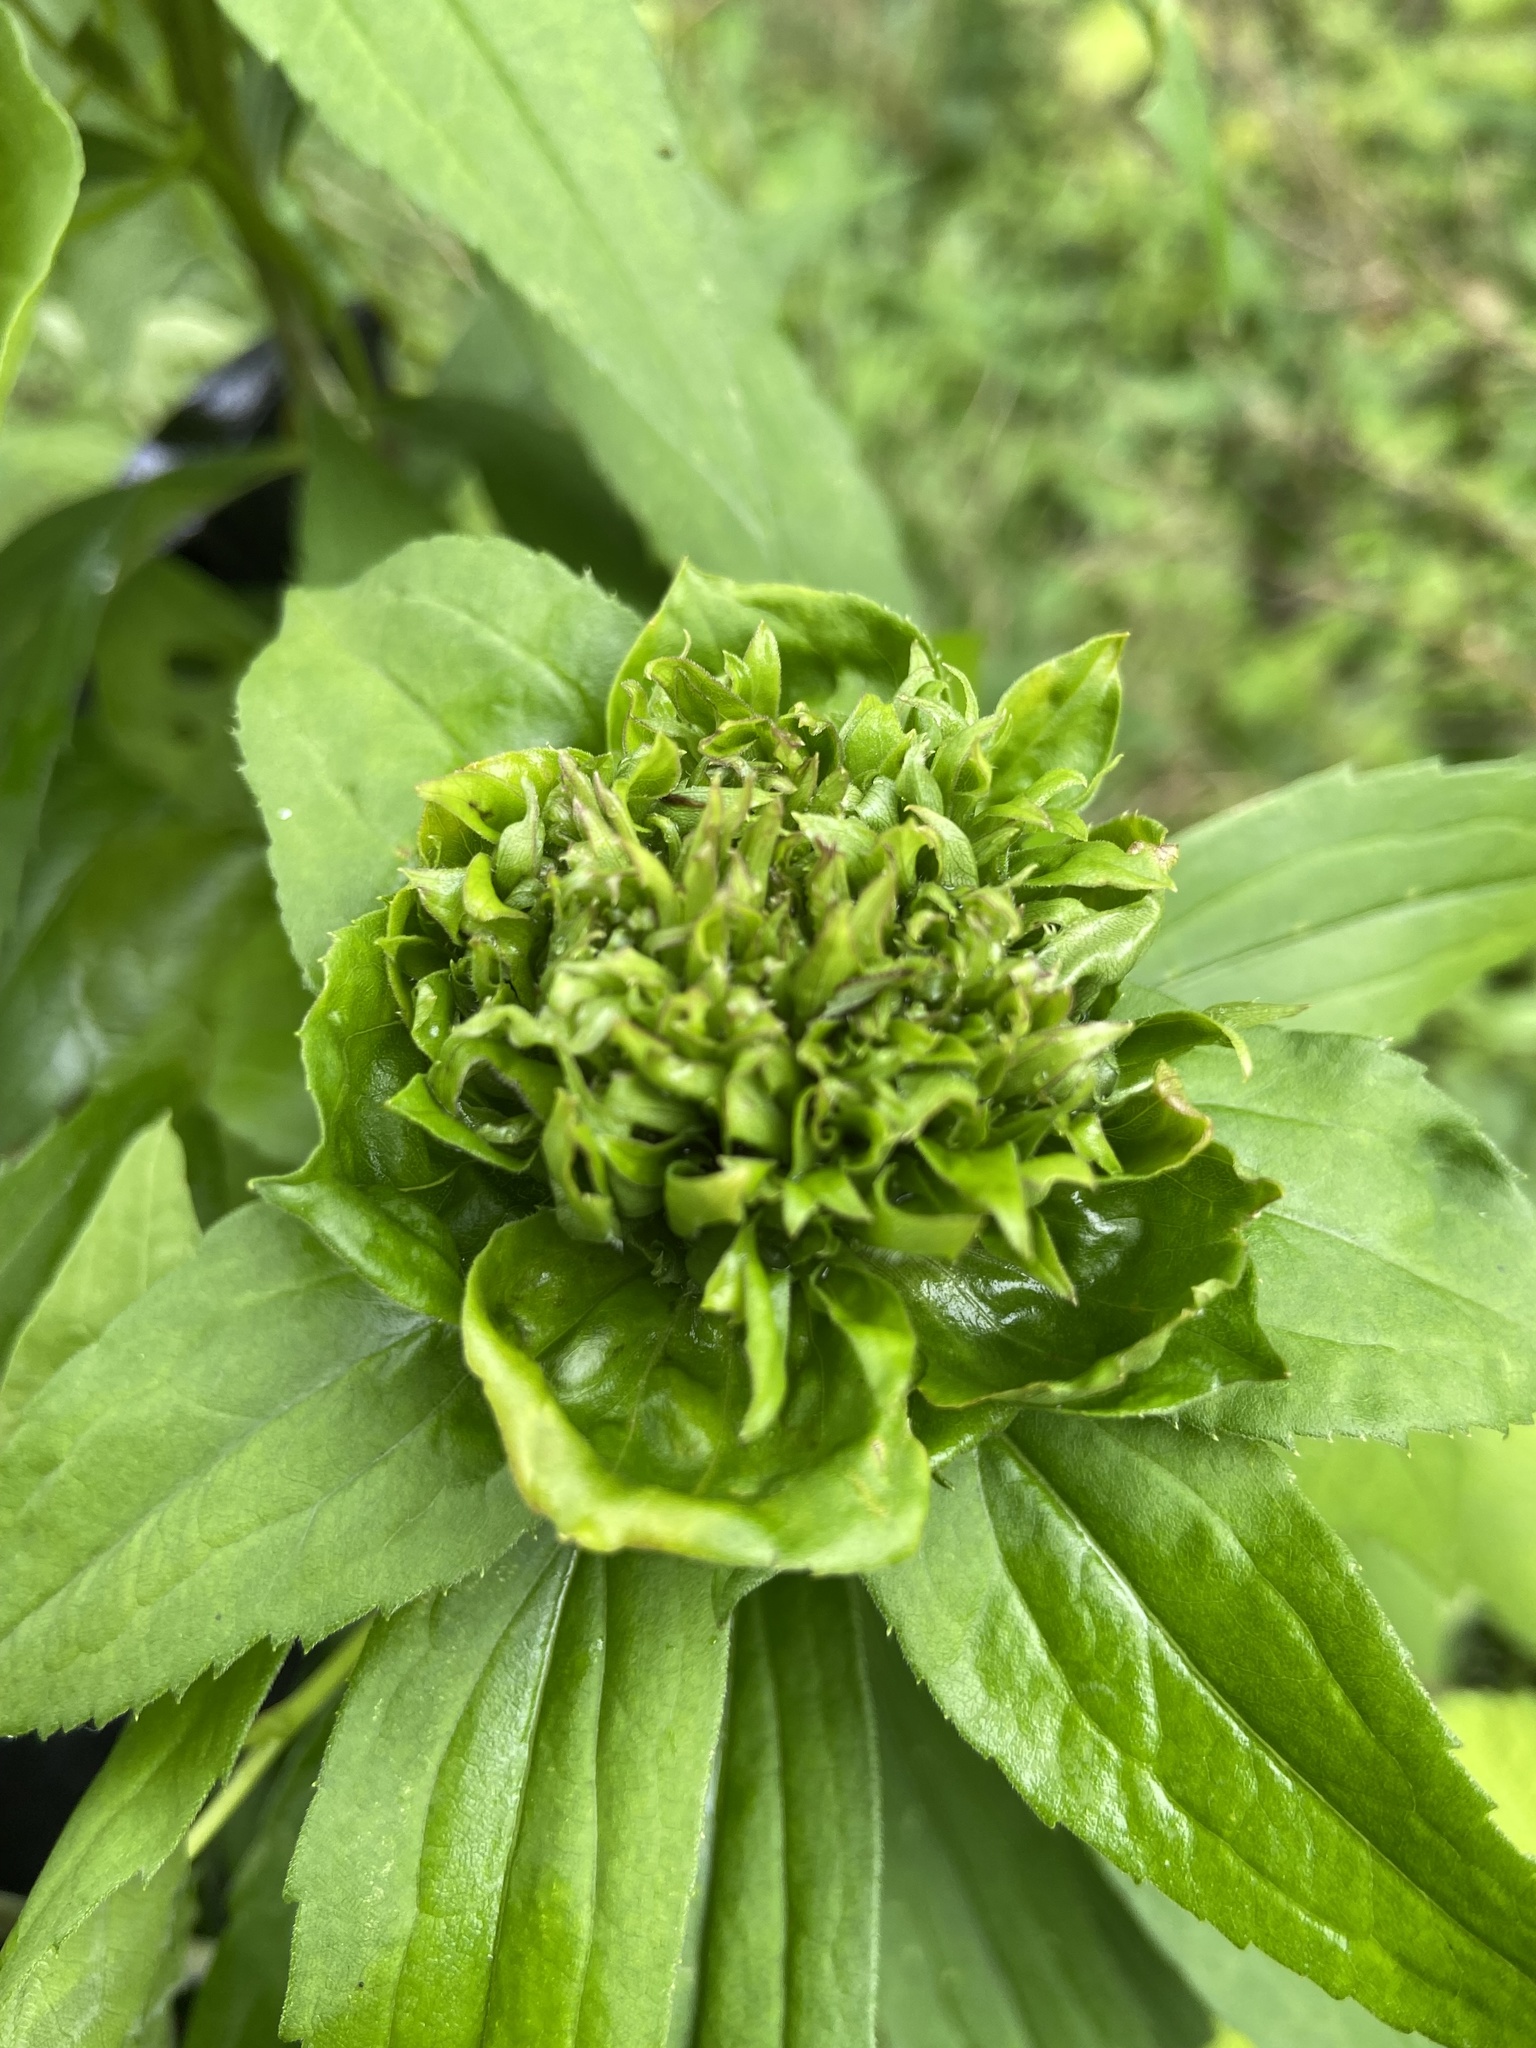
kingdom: Animalia
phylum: Arthropoda
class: Insecta
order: Diptera
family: Cecidomyiidae
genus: Rhopalomyia
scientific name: Rhopalomyia capitata
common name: Giant goldenrod bunch gall midge
